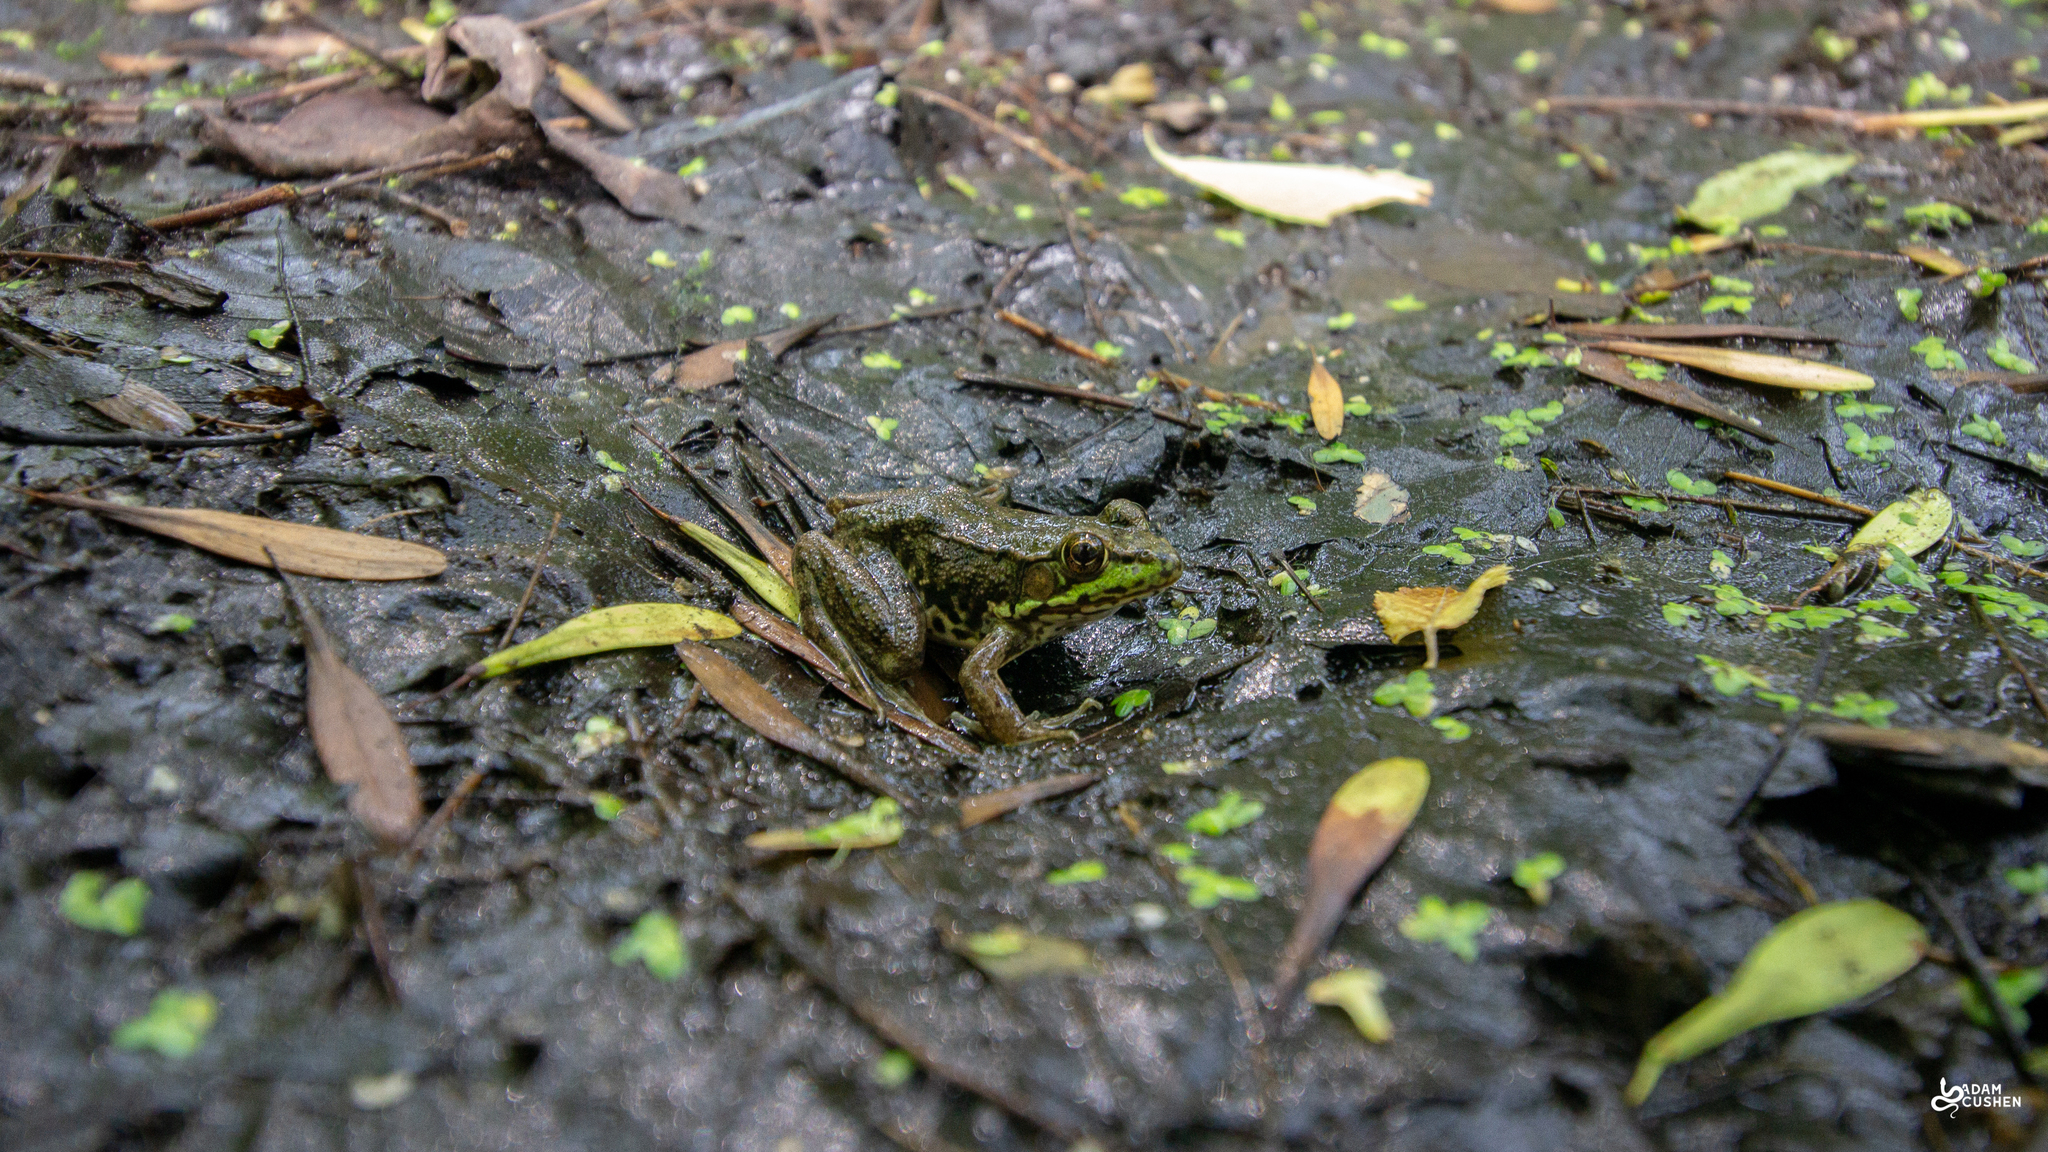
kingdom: Animalia
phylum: Chordata
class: Amphibia
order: Anura
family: Ranidae
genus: Lithobates
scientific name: Lithobates clamitans
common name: Green frog
